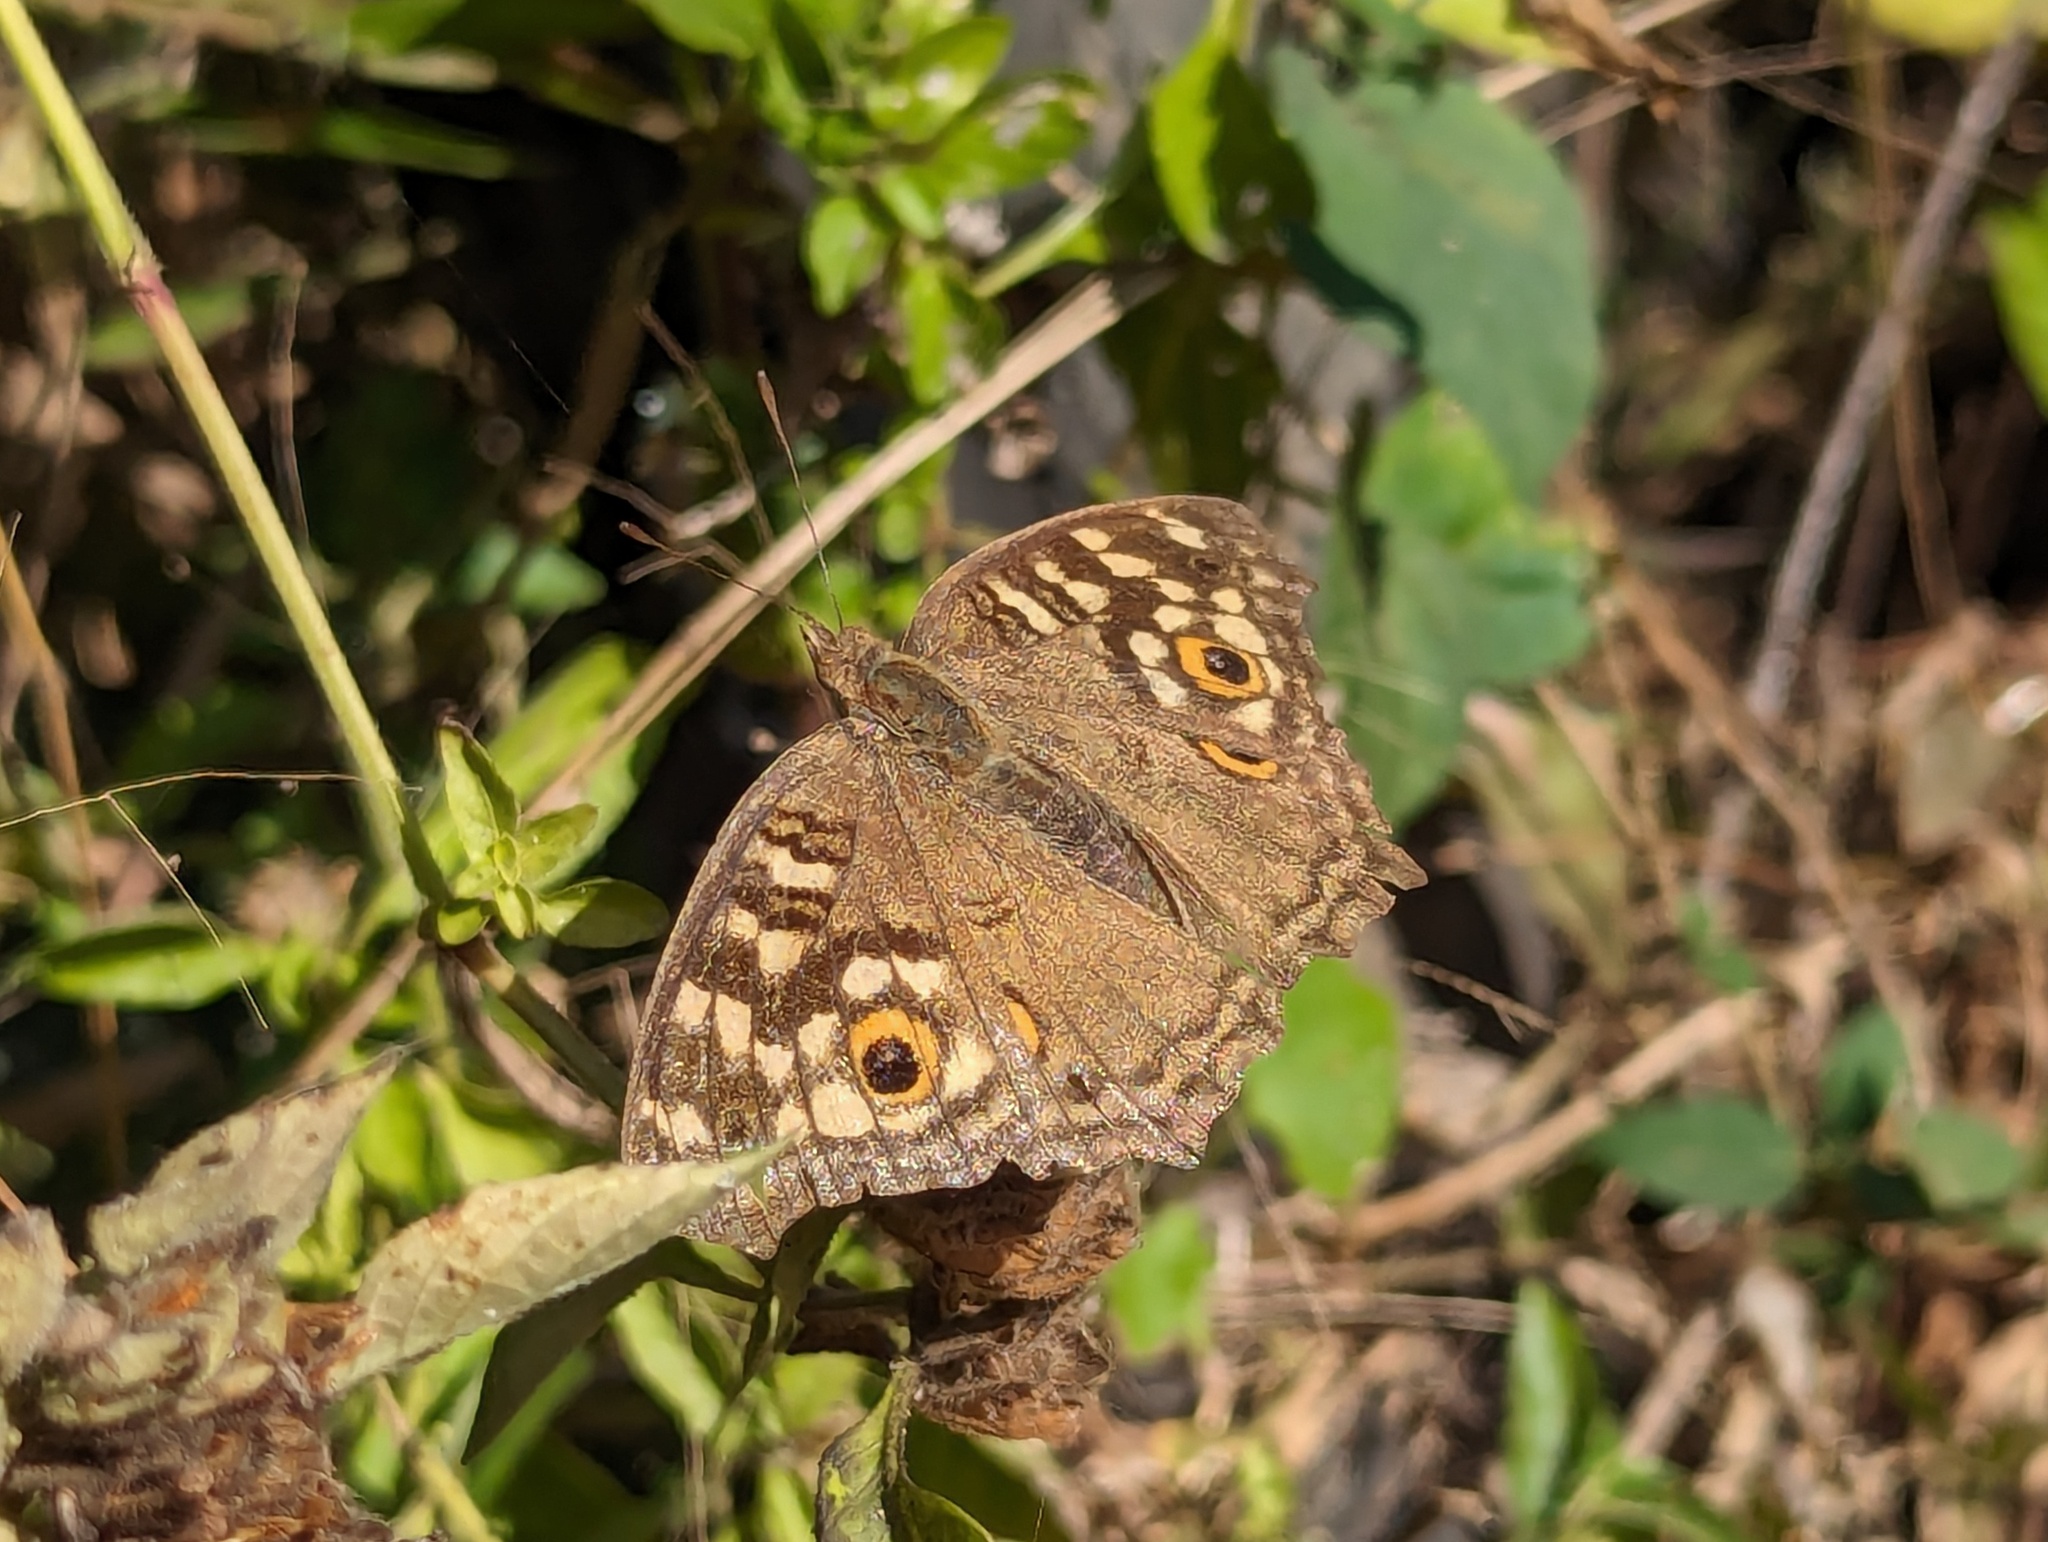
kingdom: Animalia
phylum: Arthropoda
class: Insecta
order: Lepidoptera
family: Nymphalidae
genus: Junonia
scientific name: Junonia lemonias
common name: Lemon pansy
